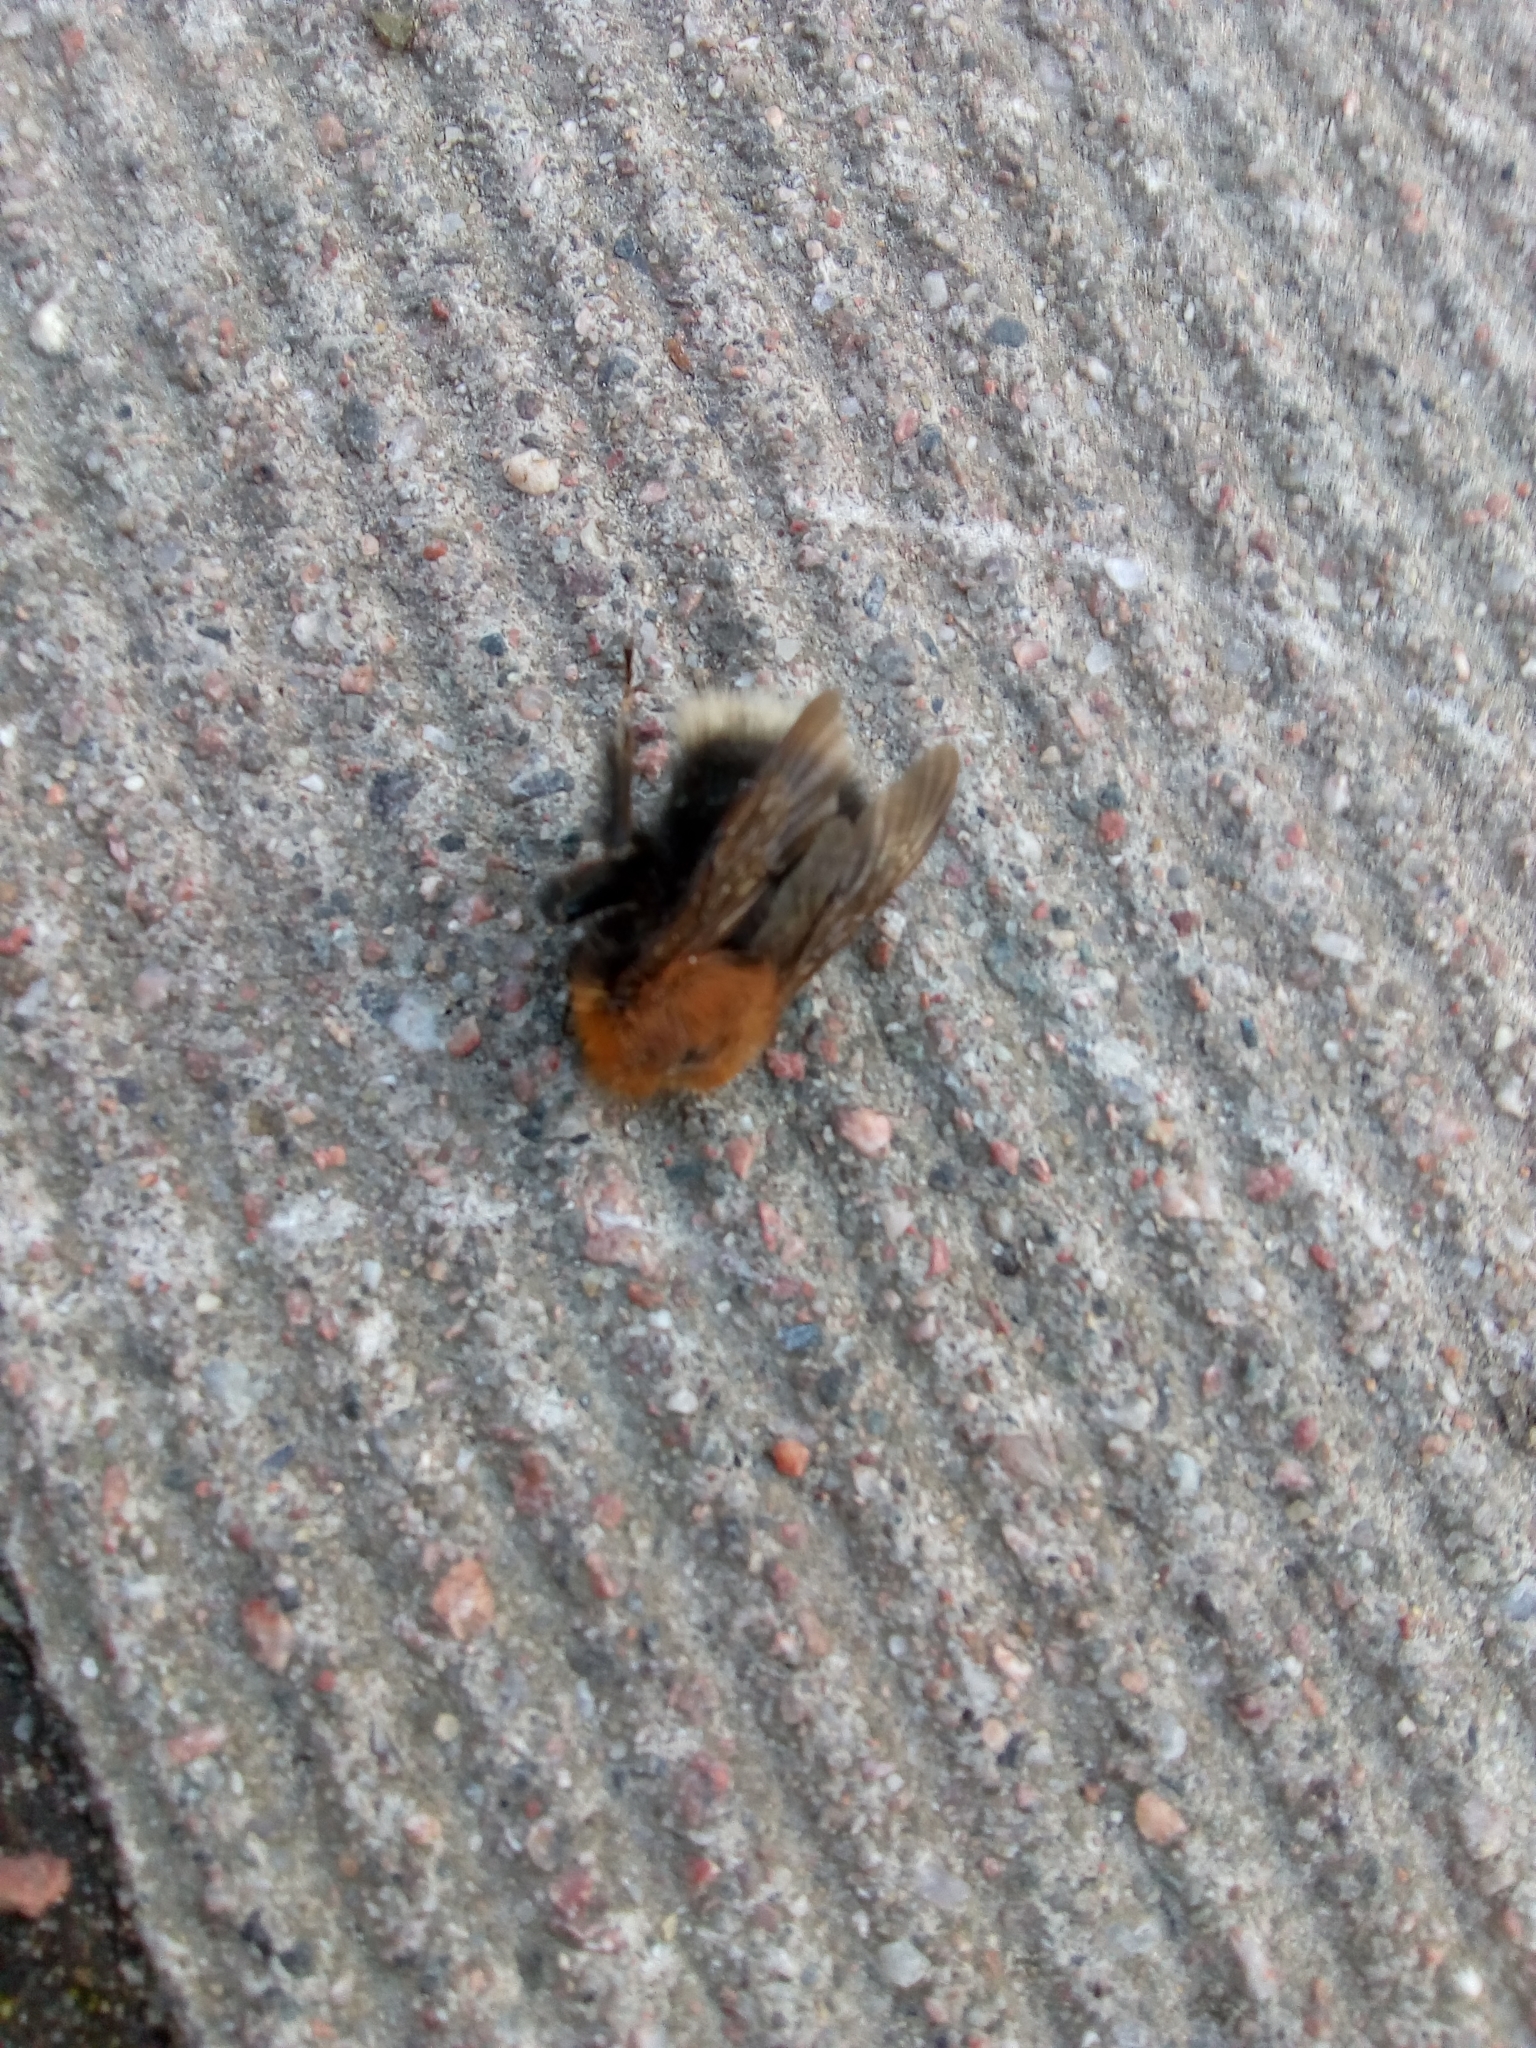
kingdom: Animalia
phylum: Arthropoda
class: Insecta
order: Hymenoptera
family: Apidae
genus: Bombus
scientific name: Bombus hypnorum
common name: New garden bumblebee
